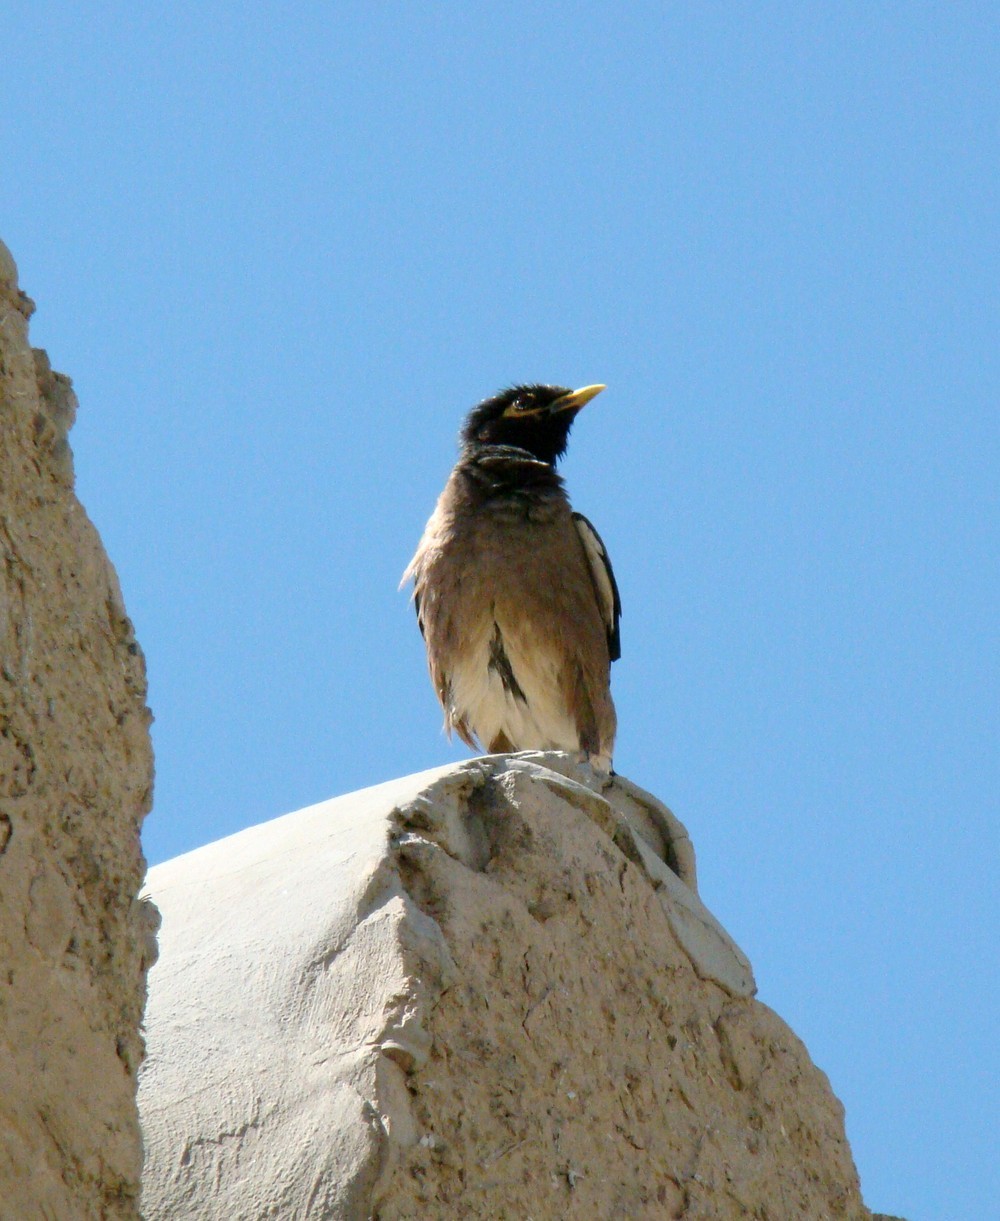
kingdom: Animalia
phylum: Chordata
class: Aves
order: Passeriformes
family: Sturnidae
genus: Acridotheres
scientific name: Acridotheres tristis
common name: Common myna
